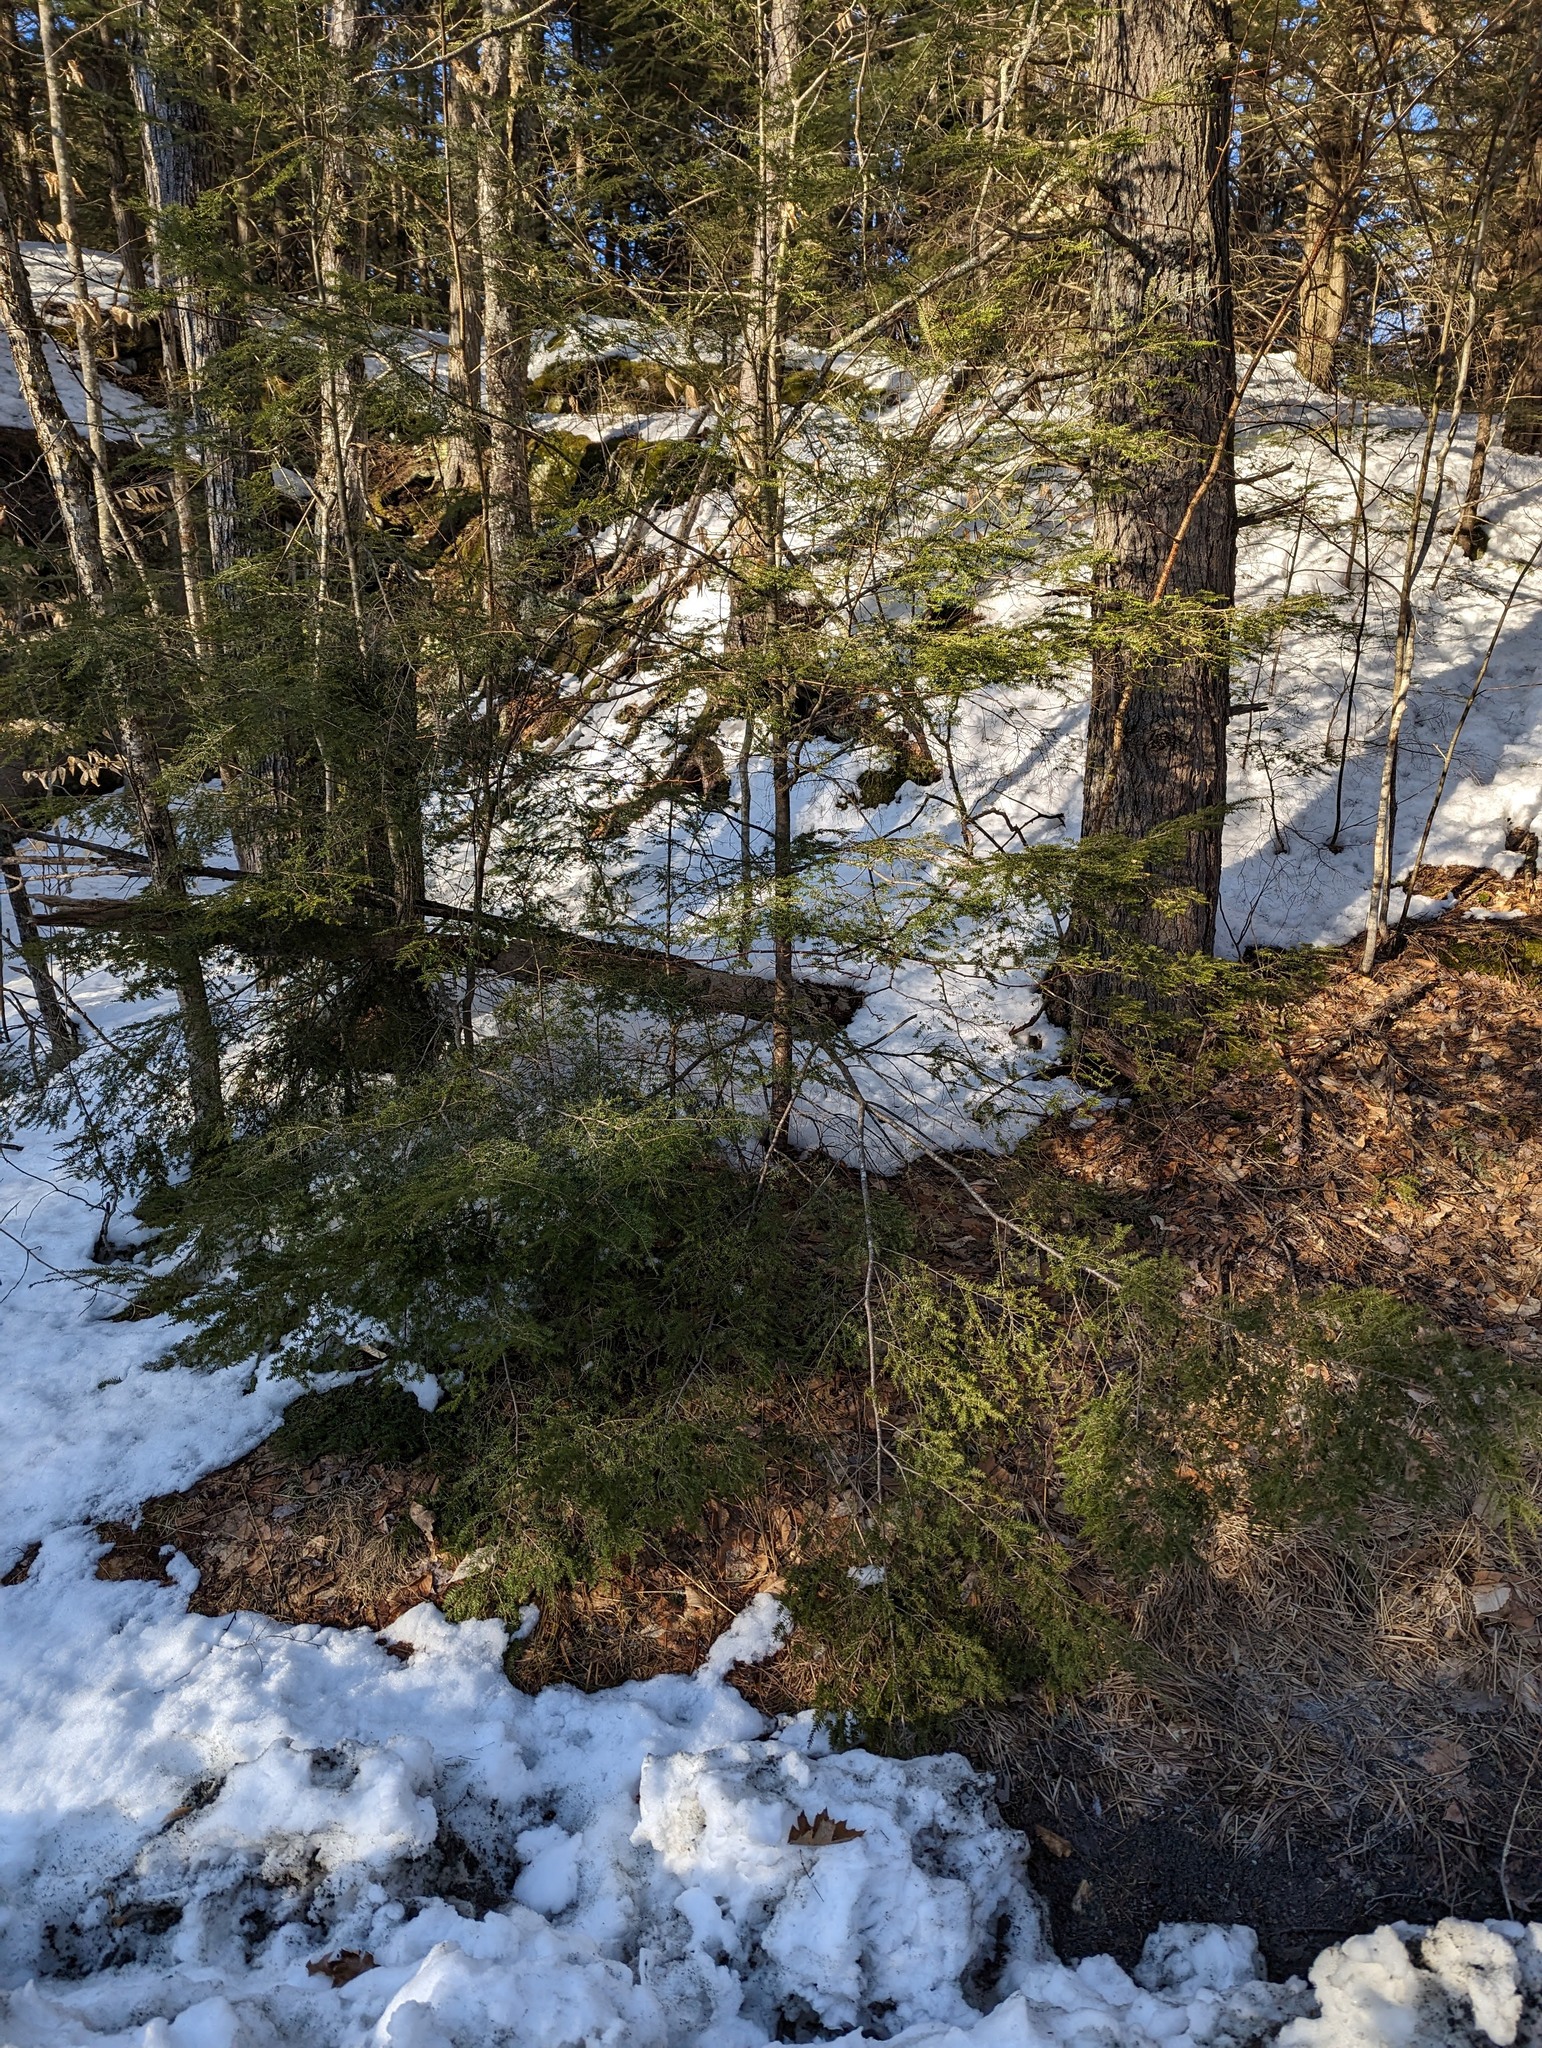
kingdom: Plantae
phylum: Tracheophyta
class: Pinopsida
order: Pinales
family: Pinaceae
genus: Tsuga
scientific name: Tsuga canadensis
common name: Eastern hemlock
